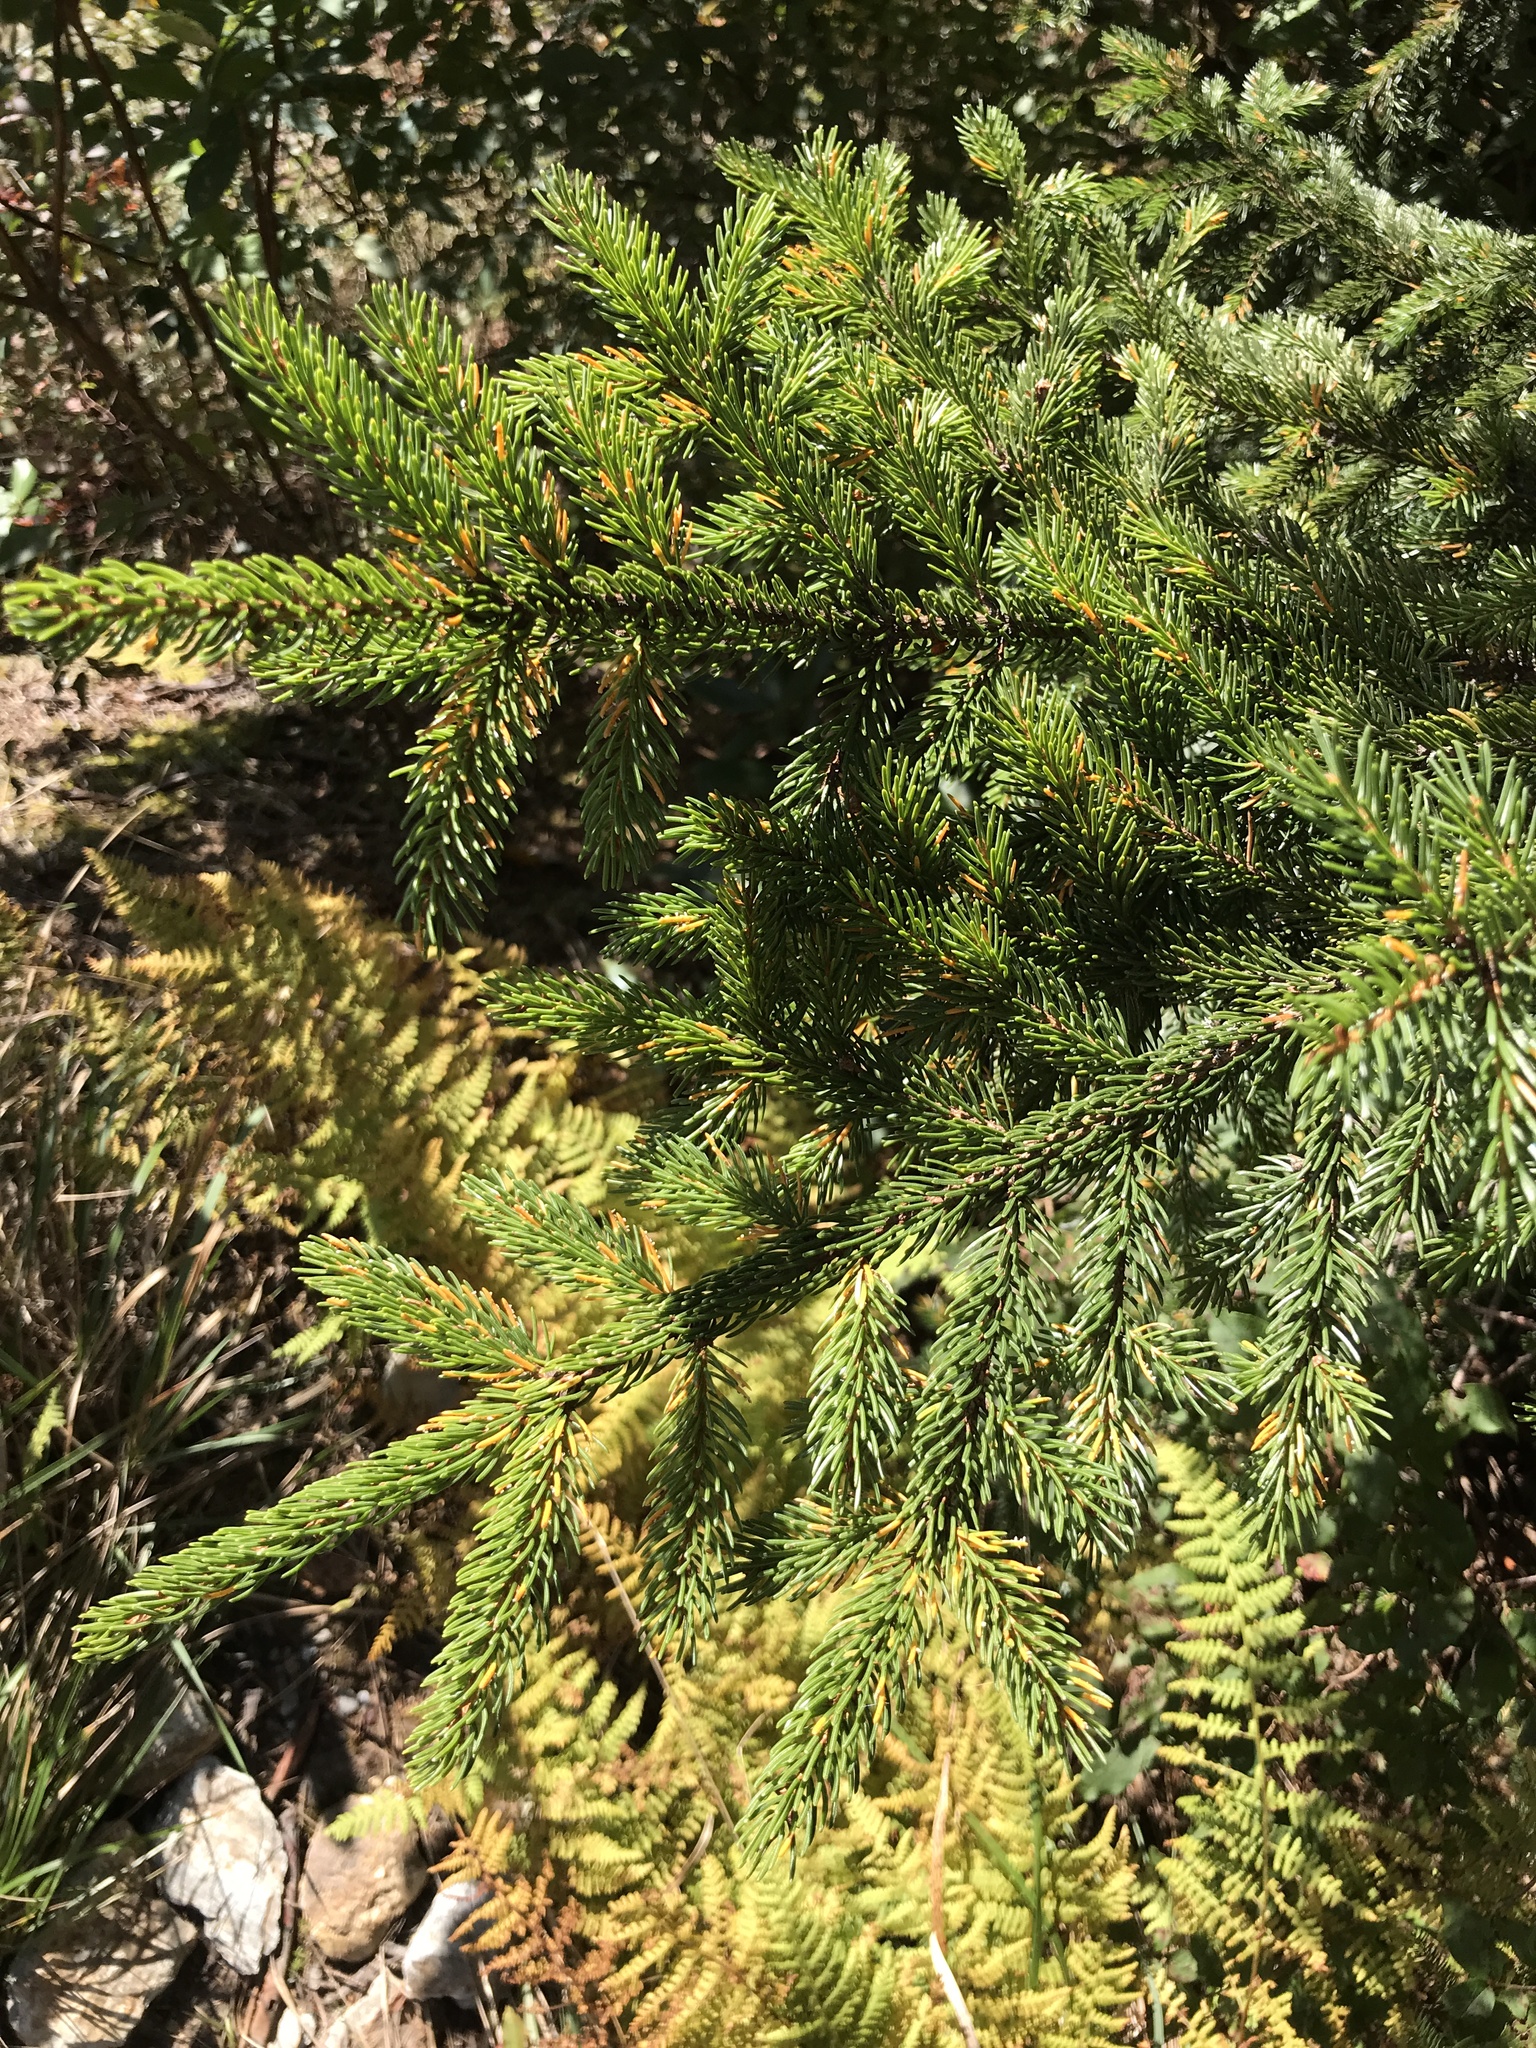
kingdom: Plantae
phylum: Tracheophyta
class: Pinopsida
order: Pinales
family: Pinaceae
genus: Picea
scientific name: Picea rubens
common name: Red spruce
